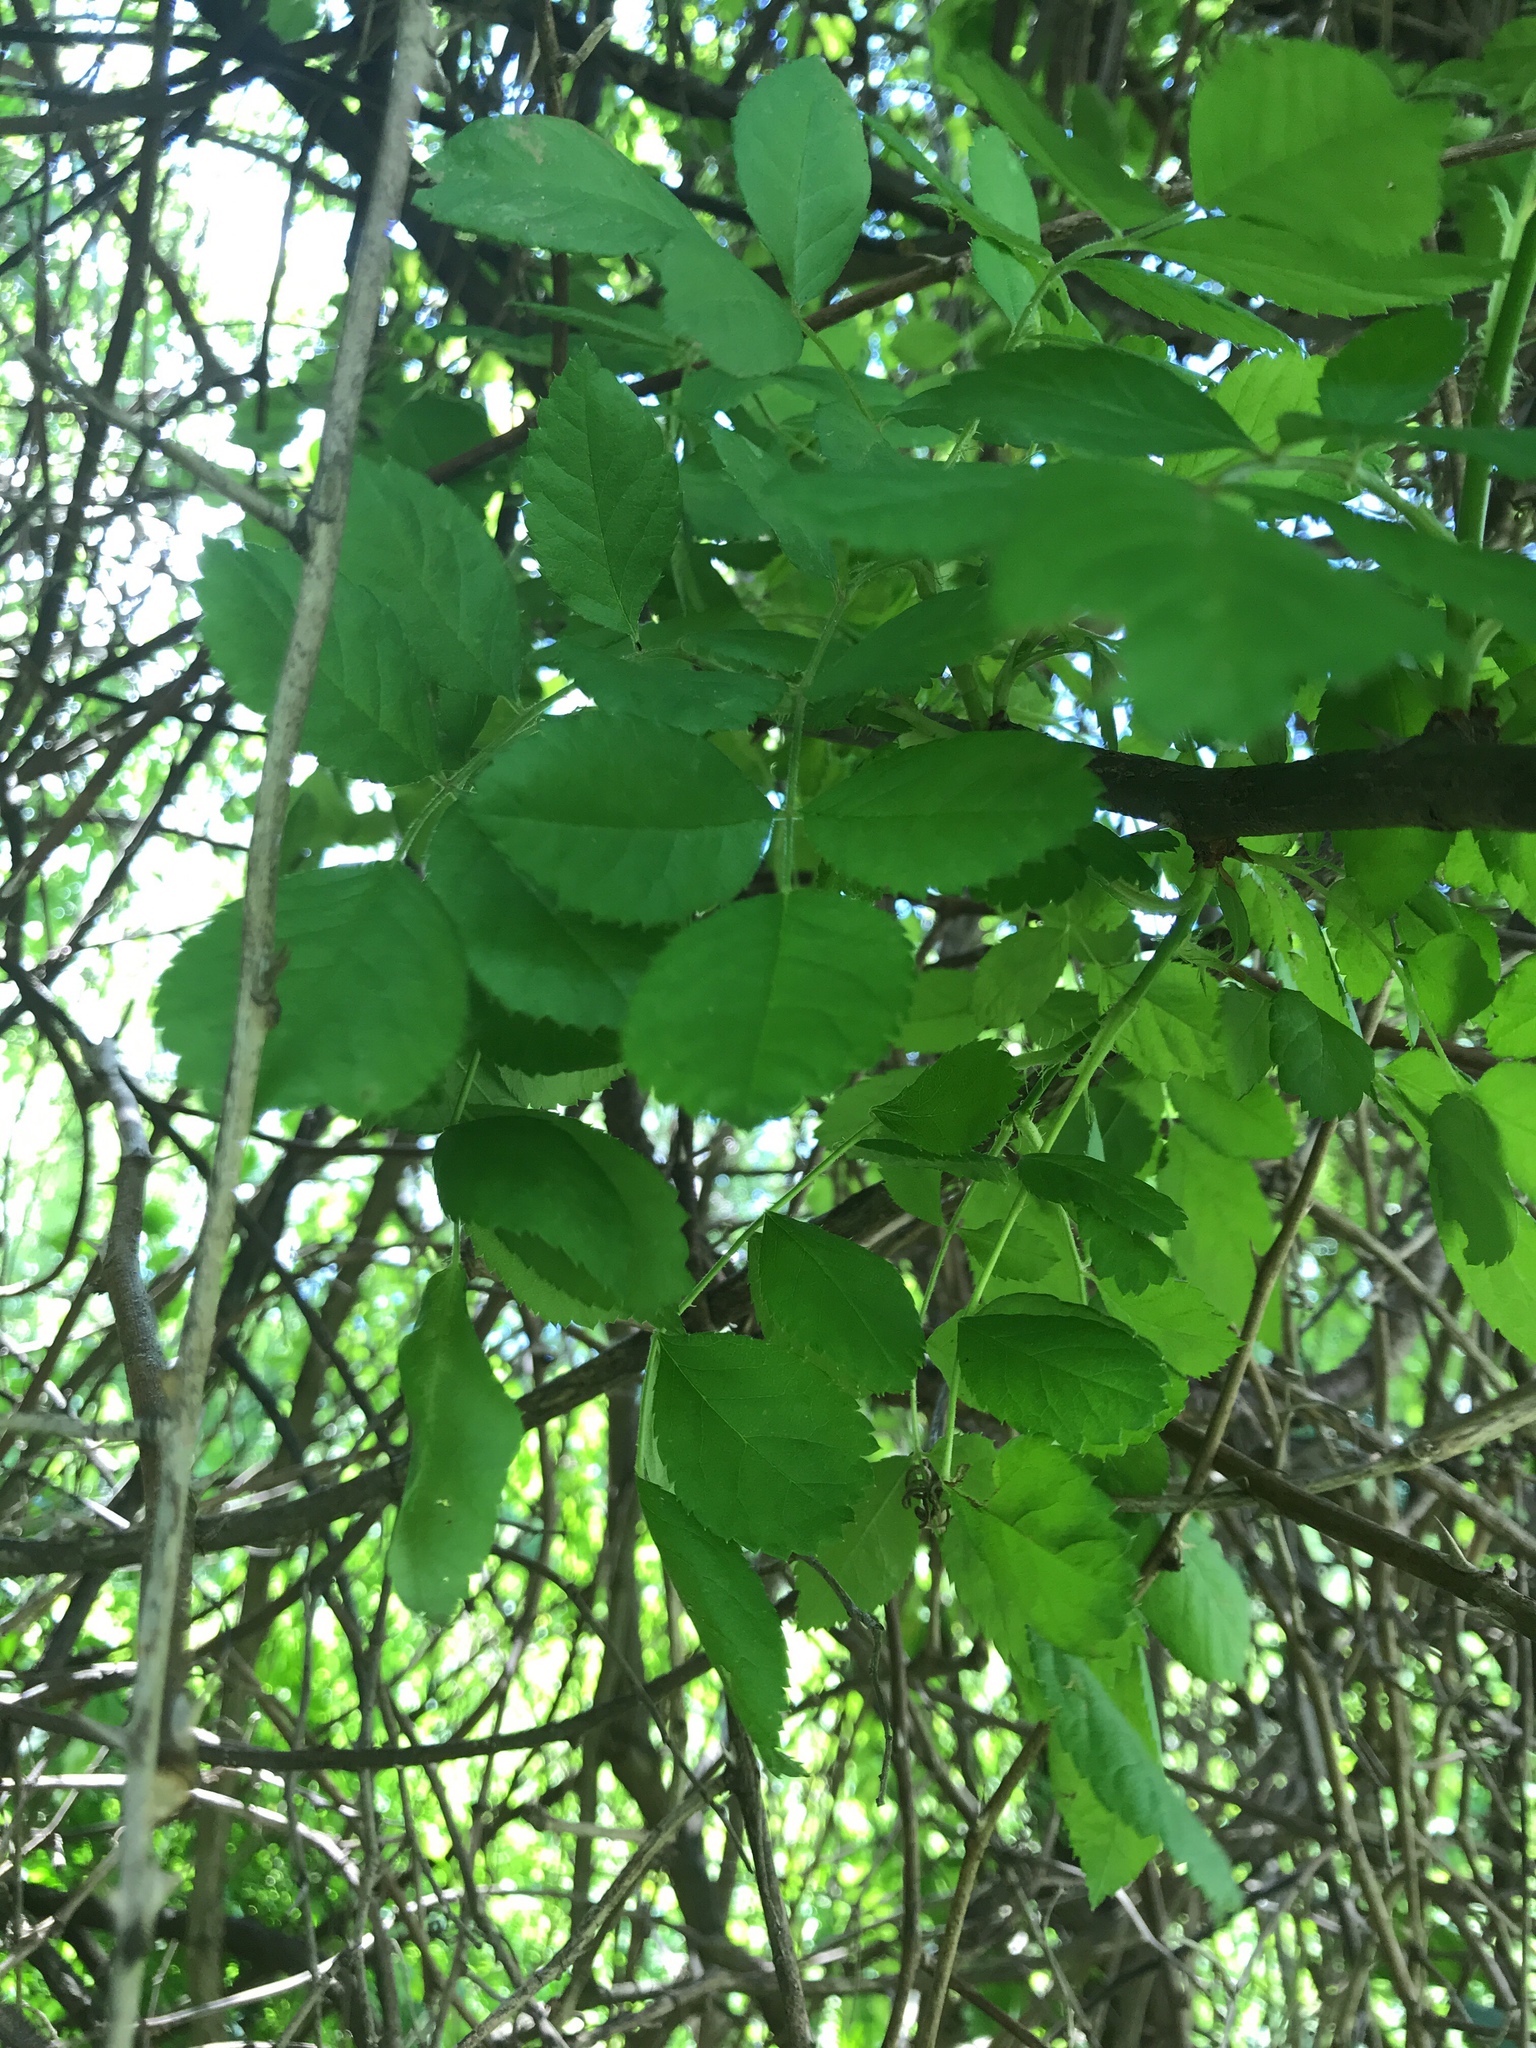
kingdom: Plantae
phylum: Tracheophyta
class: Magnoliopsida
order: Rosales
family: Rosaceae
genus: Rosa
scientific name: Rosa multiflora
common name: Multiflora rose
